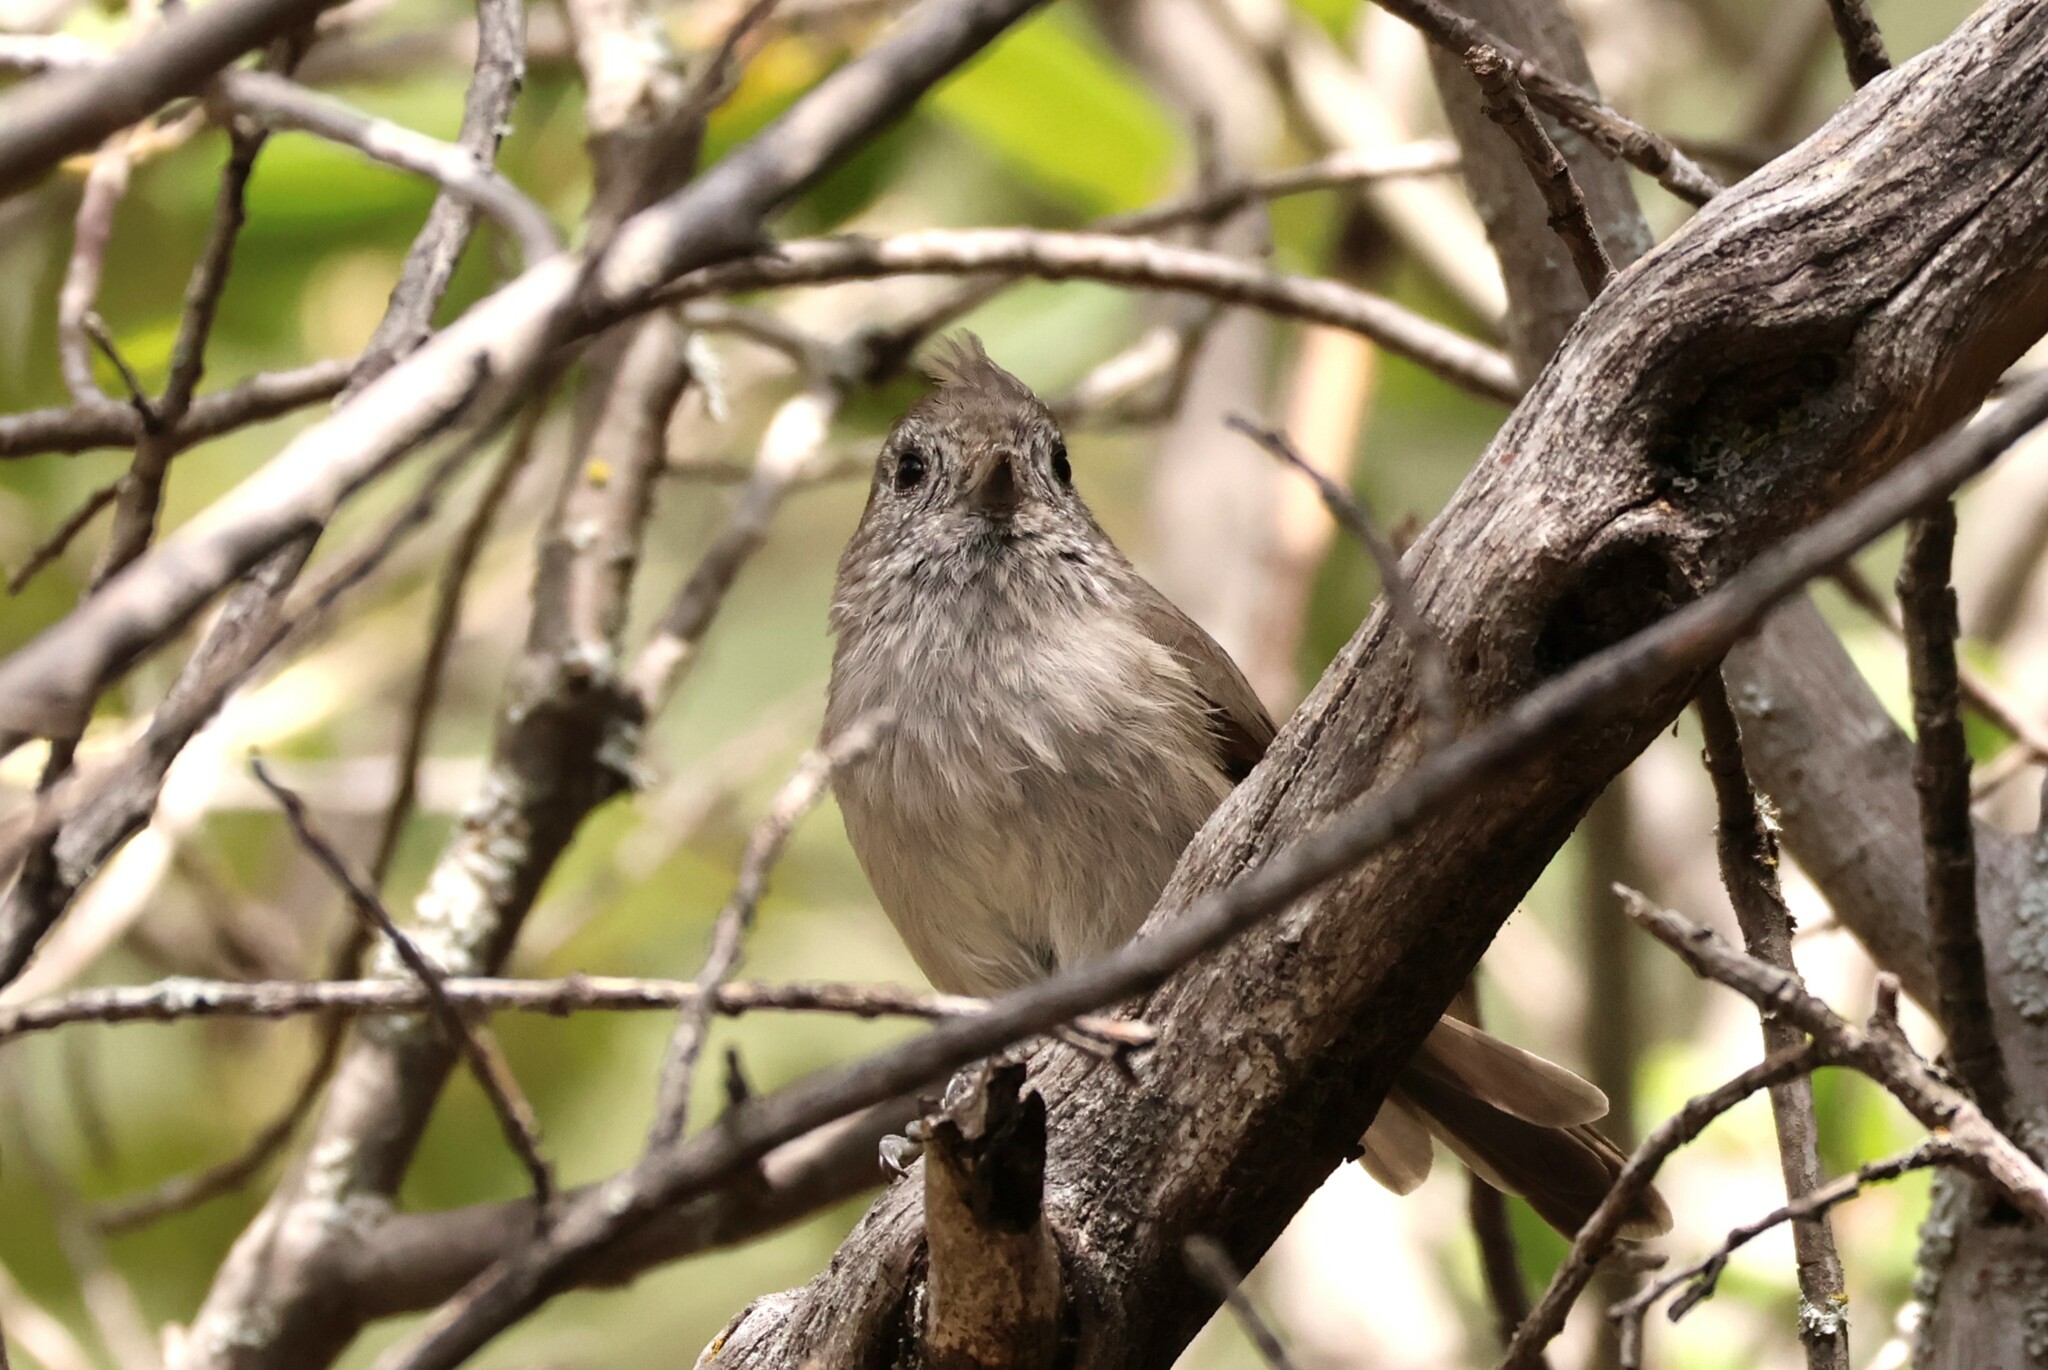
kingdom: Animalia
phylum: Chordata
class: Aves
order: Passeriformes
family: Paridae
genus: Baeolophus
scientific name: Baeolophus inornatus
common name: Oak titmouse
